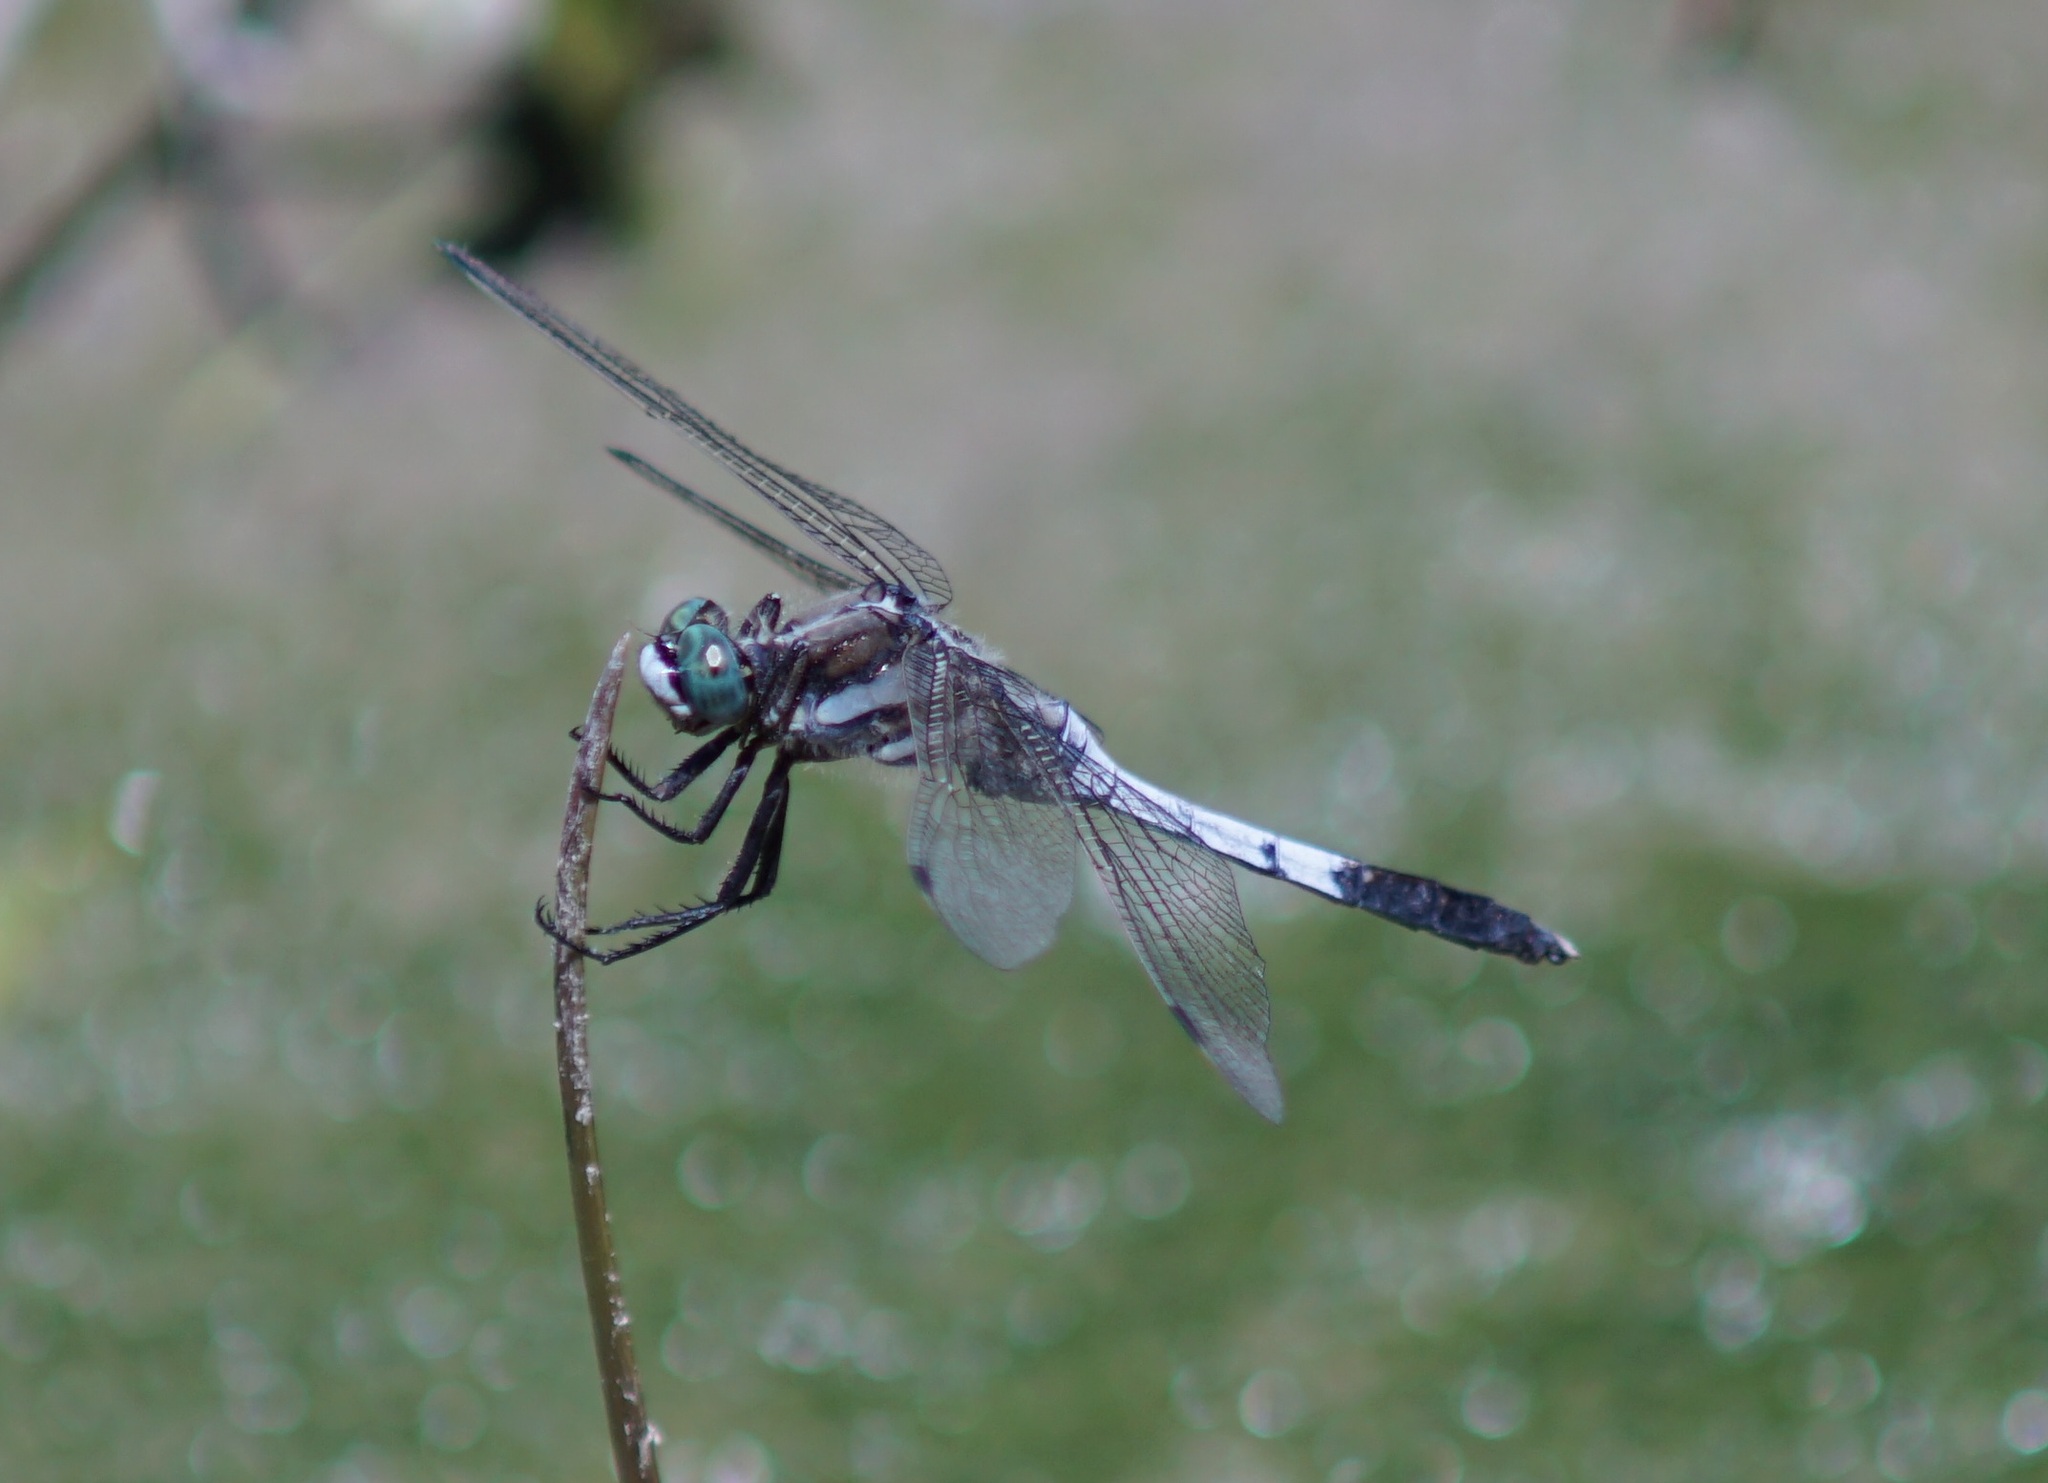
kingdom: Animalia
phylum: Arthropoda
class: Insecta
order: Odonata
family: Libellulidae
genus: Orthetrum
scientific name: Orthetrum albistylum
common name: White-tailed skimmer
